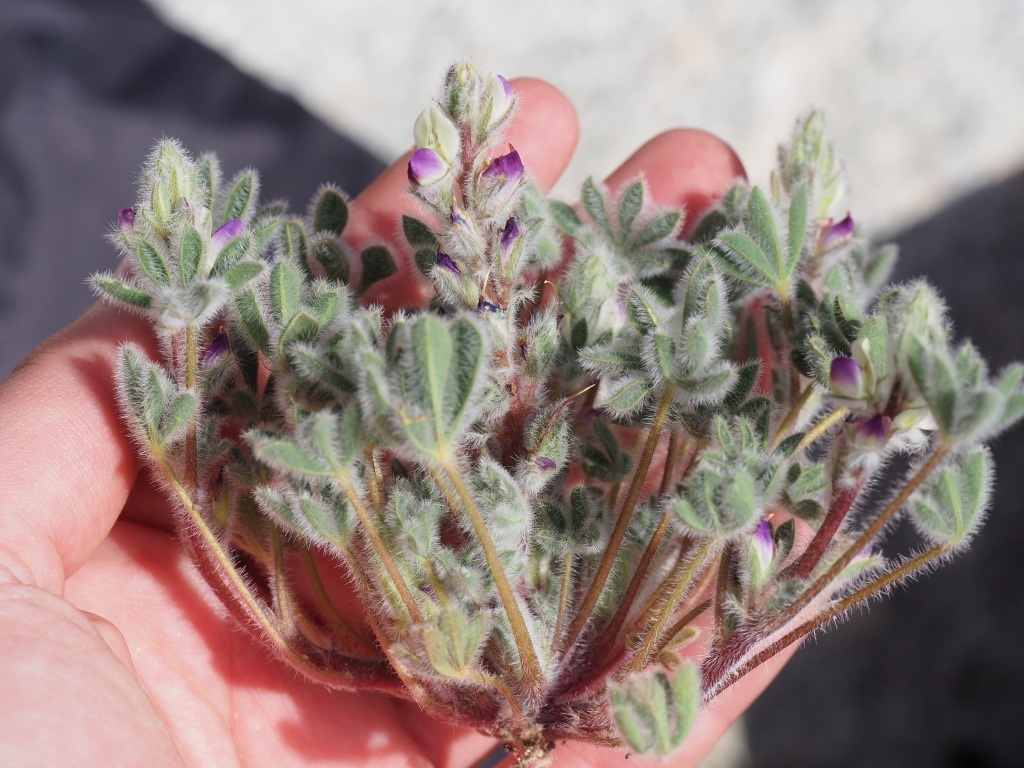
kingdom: Plantae
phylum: Tracheophyta
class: Magnoliopsida
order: Fabales
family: Fabaceae
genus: Lupinus
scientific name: Lupinus concinnus
